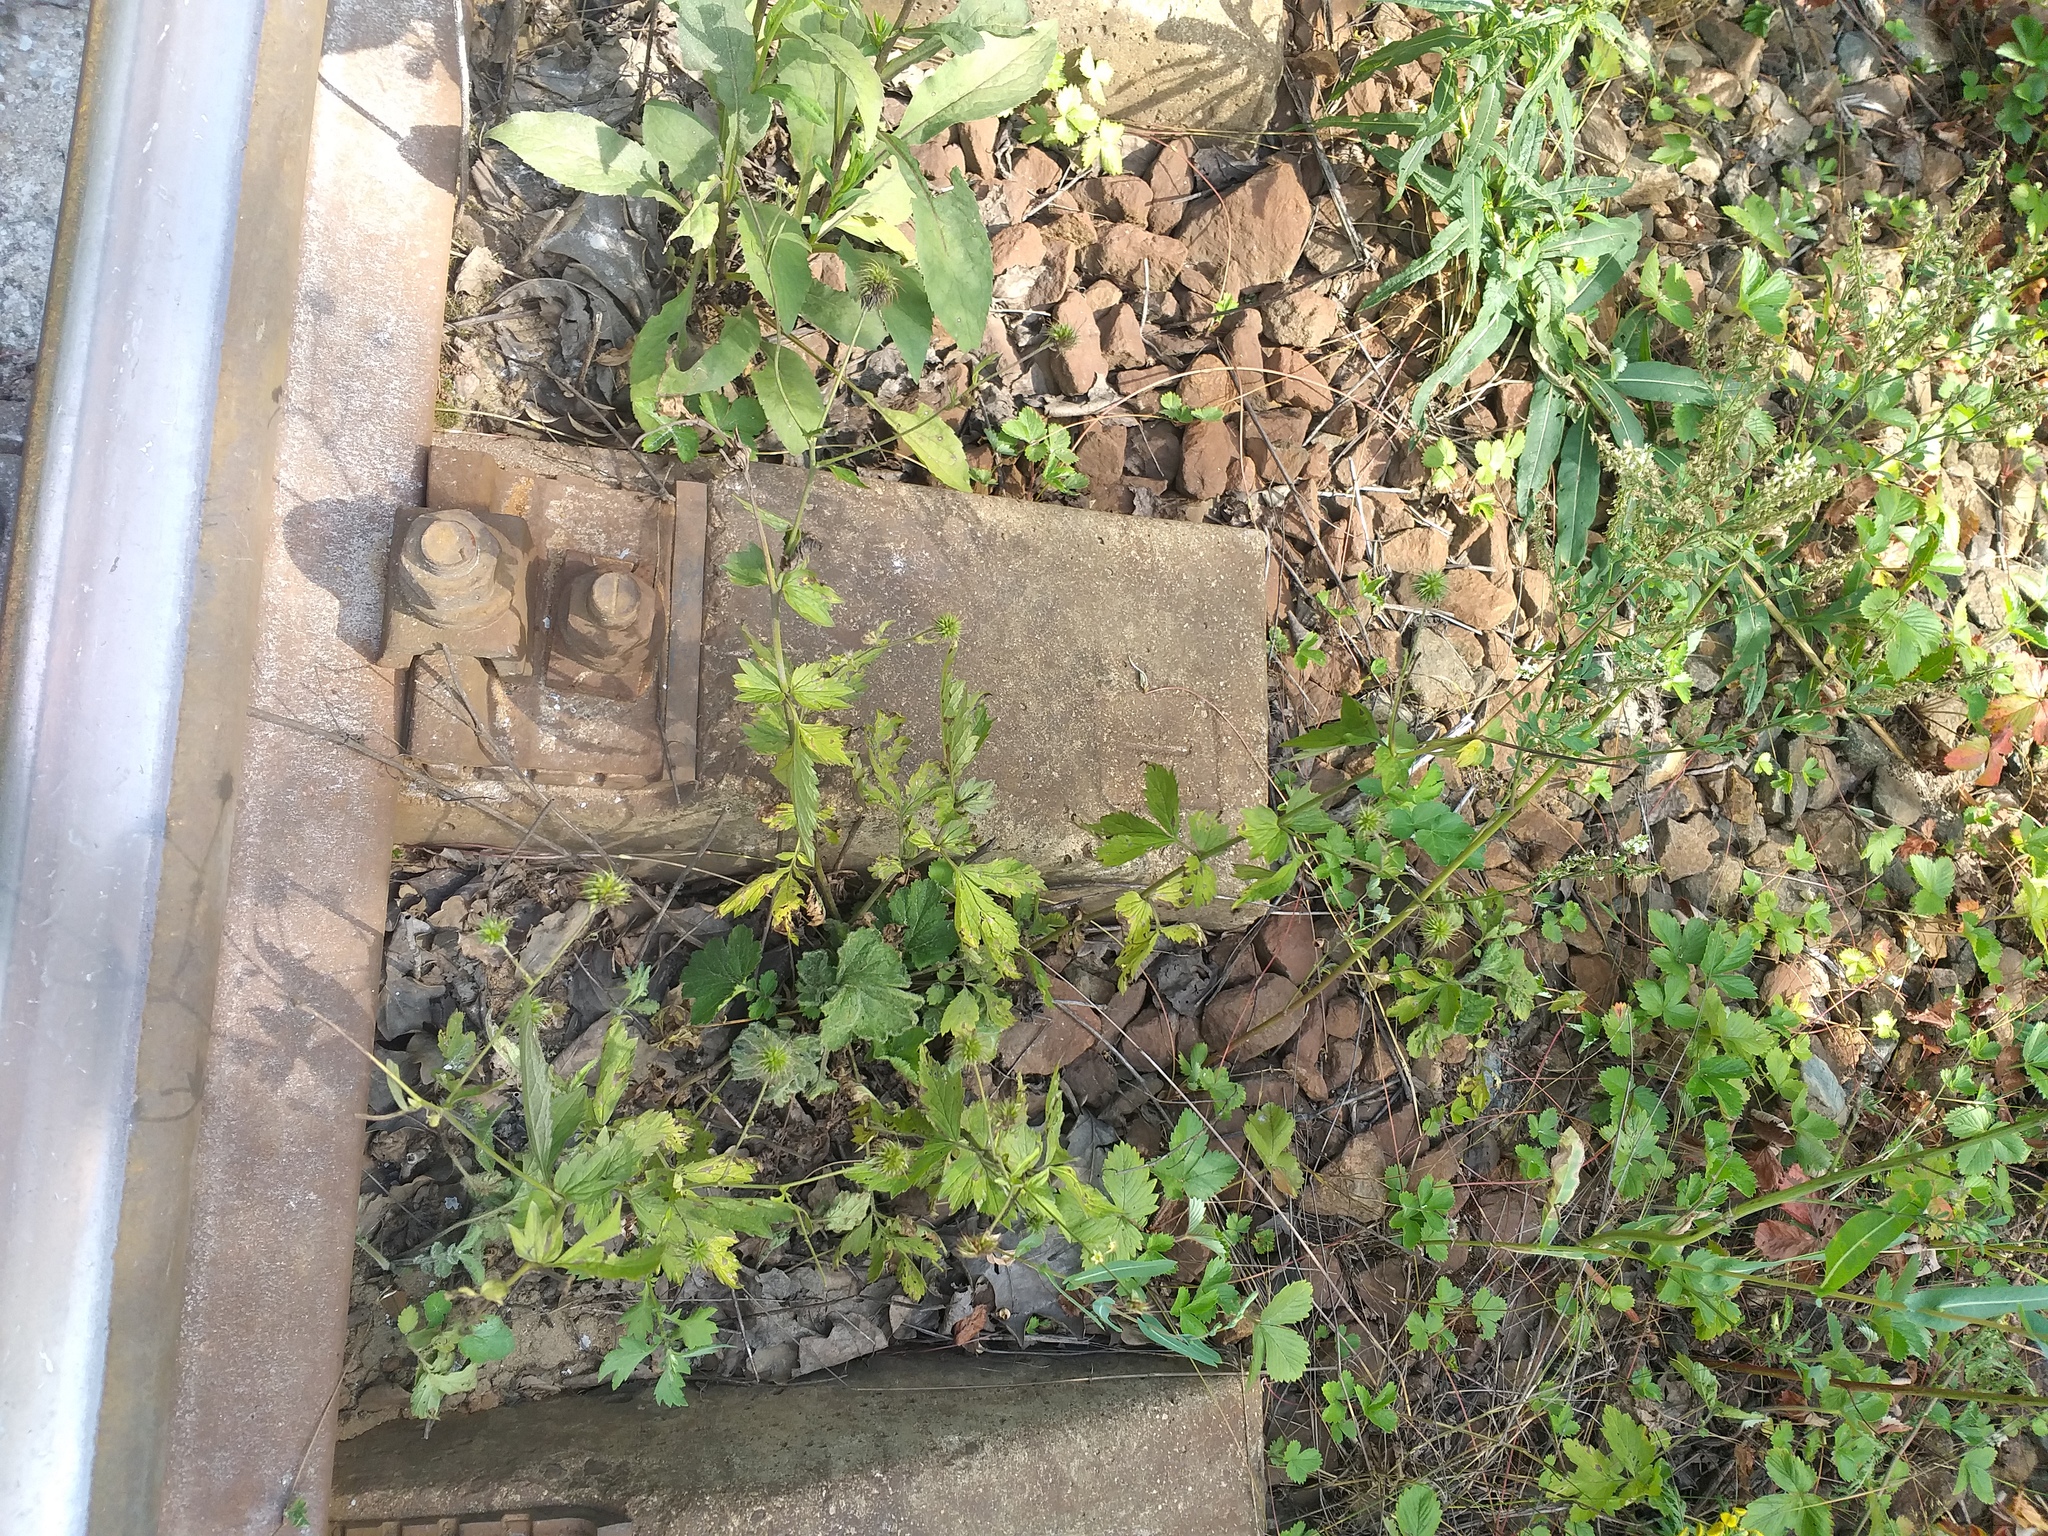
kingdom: Plantae
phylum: Tracheophyta
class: Magnoliopsida
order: Rosales
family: Rosaceae
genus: Geum
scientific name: Geum urbanum
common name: Wood avens
